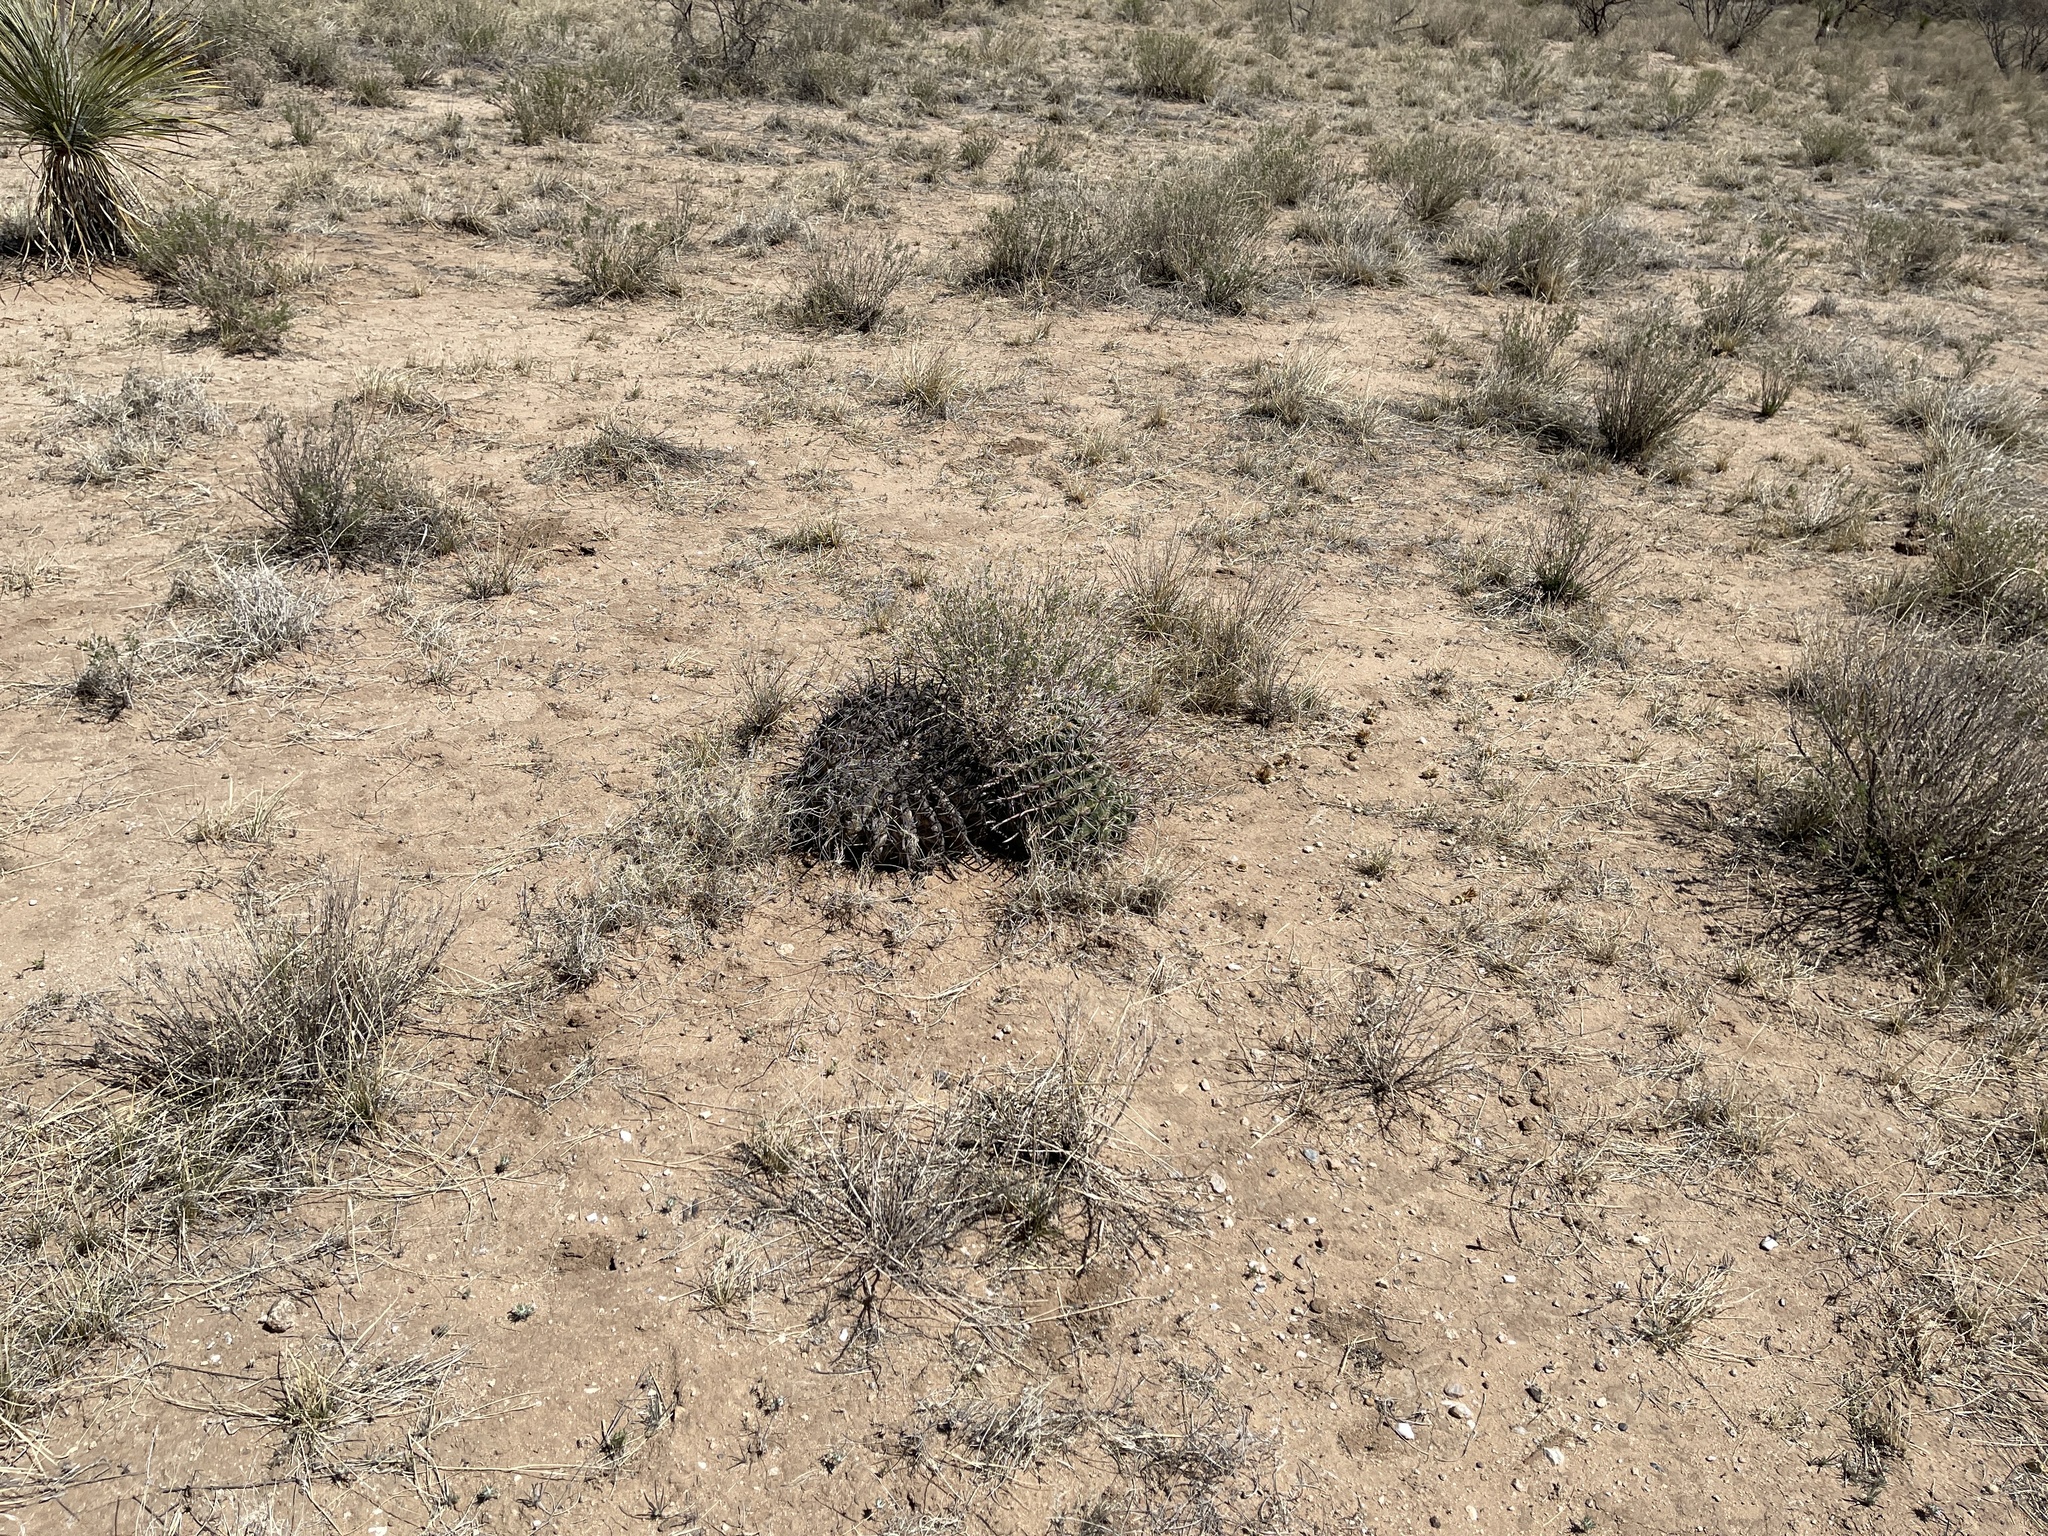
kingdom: Plantae
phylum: Tracheophyta
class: Magnoliopsida
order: Caryophyllales
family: Cactaceae
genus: Ferocactus
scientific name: Ferocactus wislizeni
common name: Candy barrel cactus
